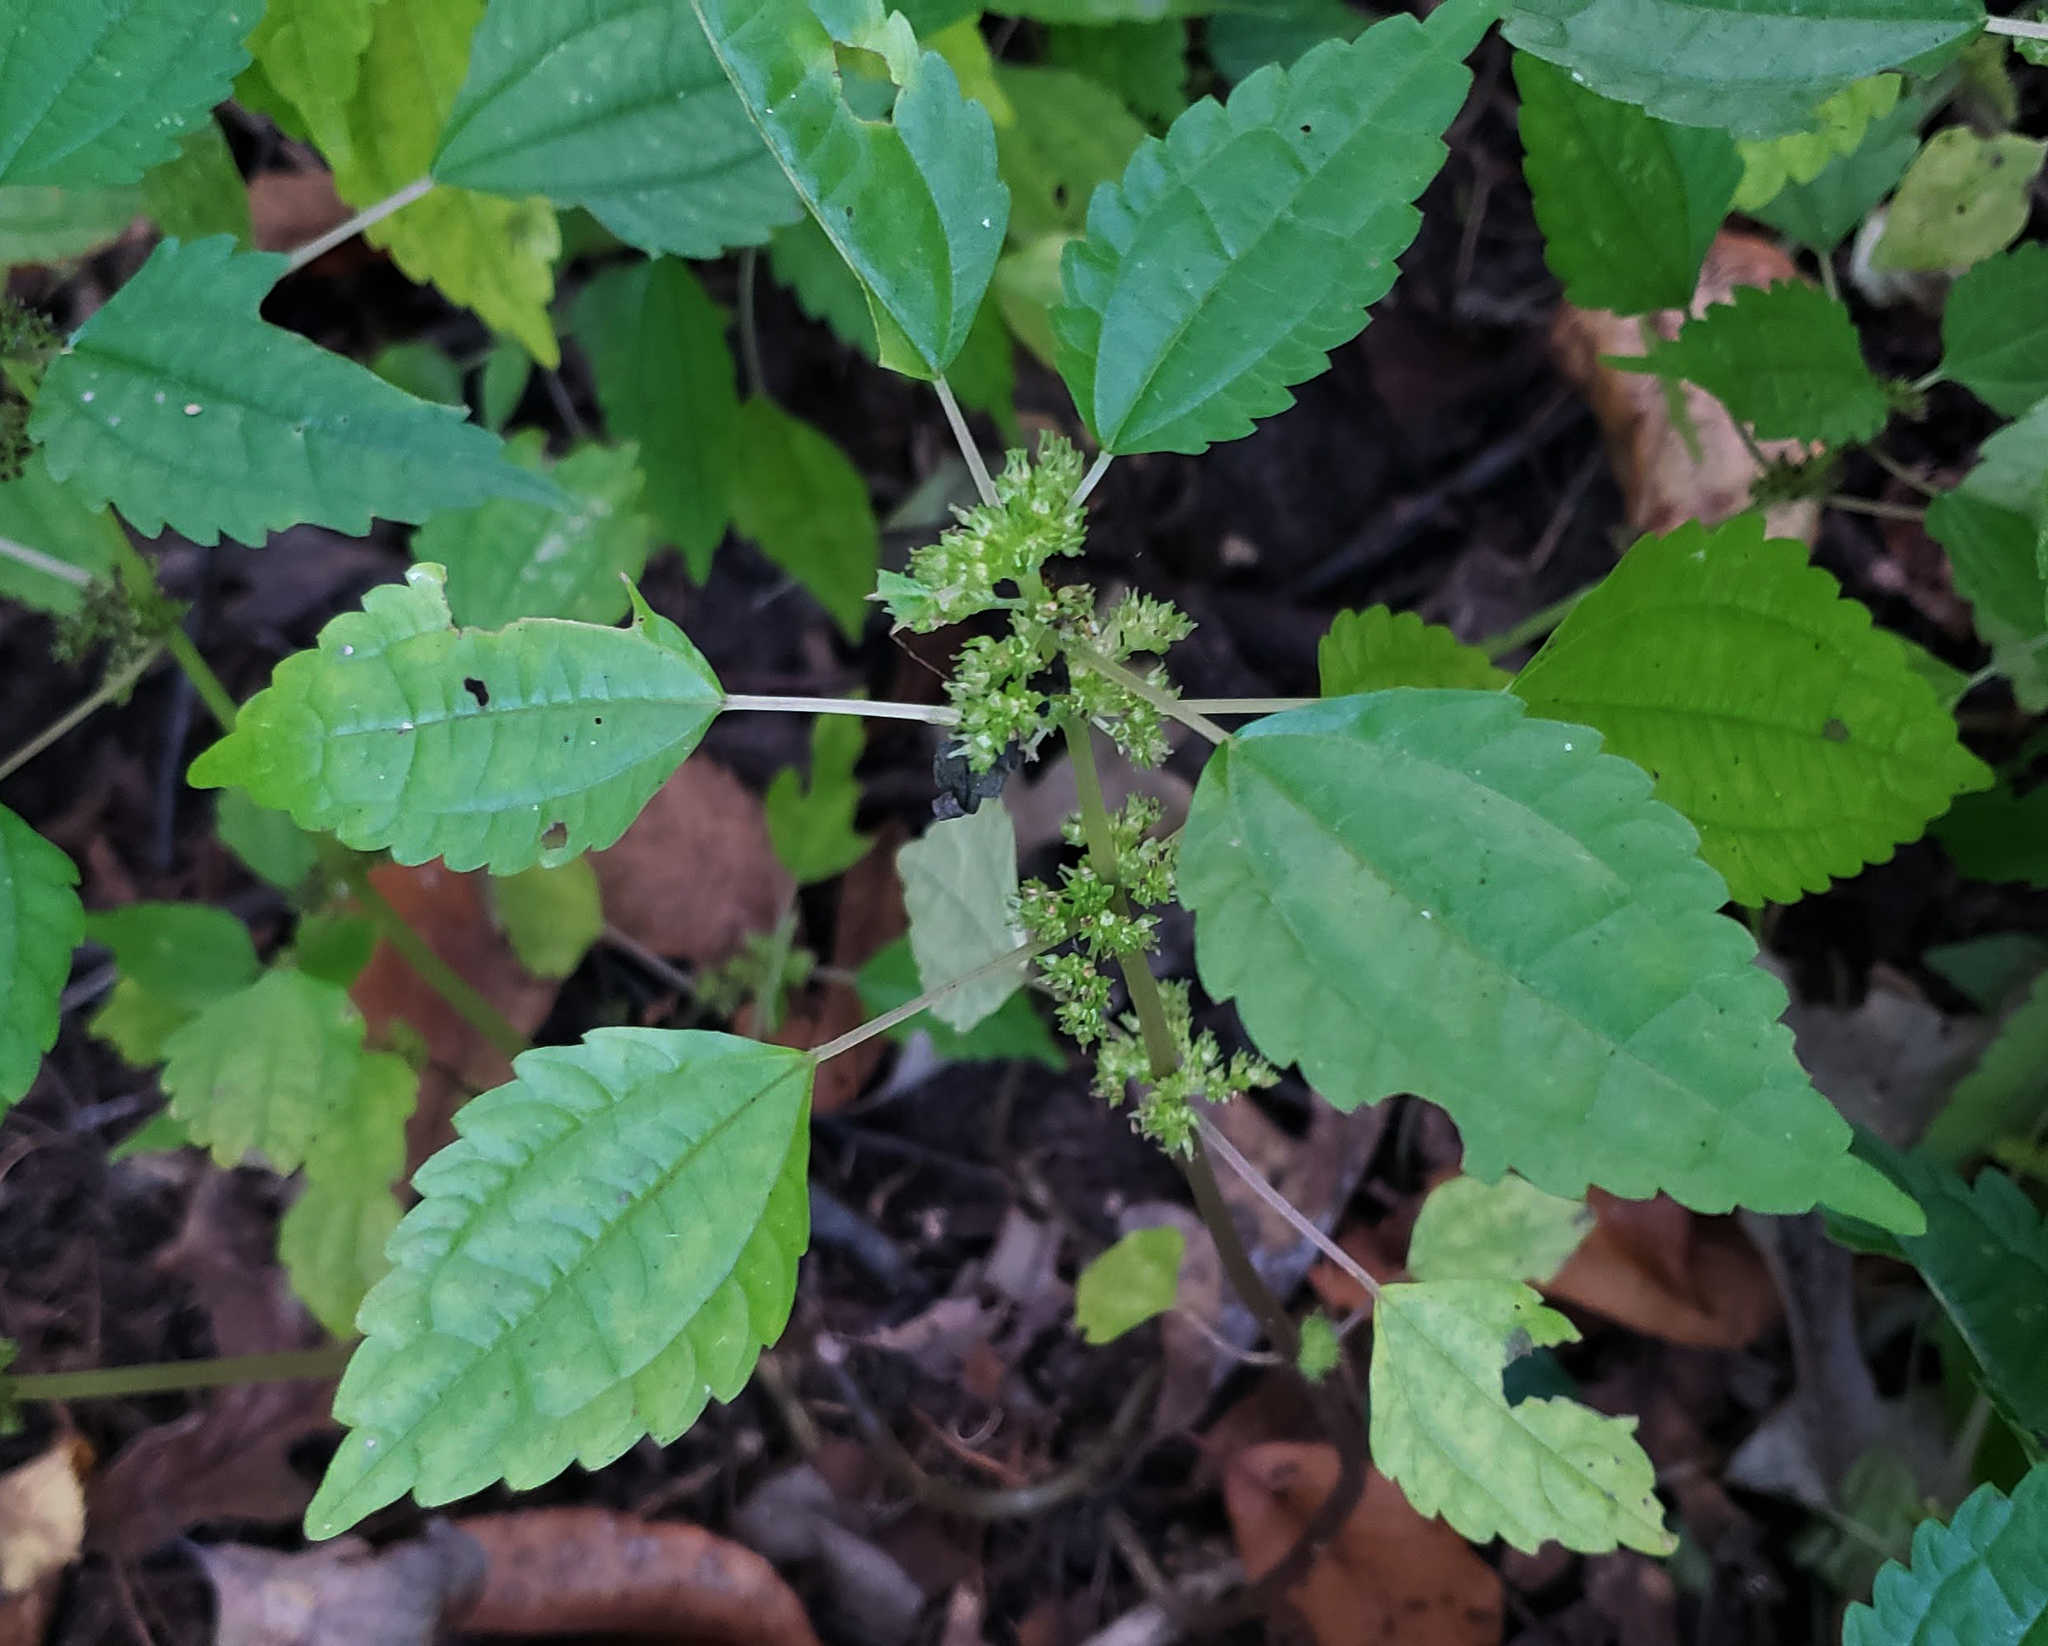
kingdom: Plantae
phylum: Tracheophyta
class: Magnoliopsida
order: Rosales
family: Urticaceae
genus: Pilea
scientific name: Pilea pumila
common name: Clearweed
